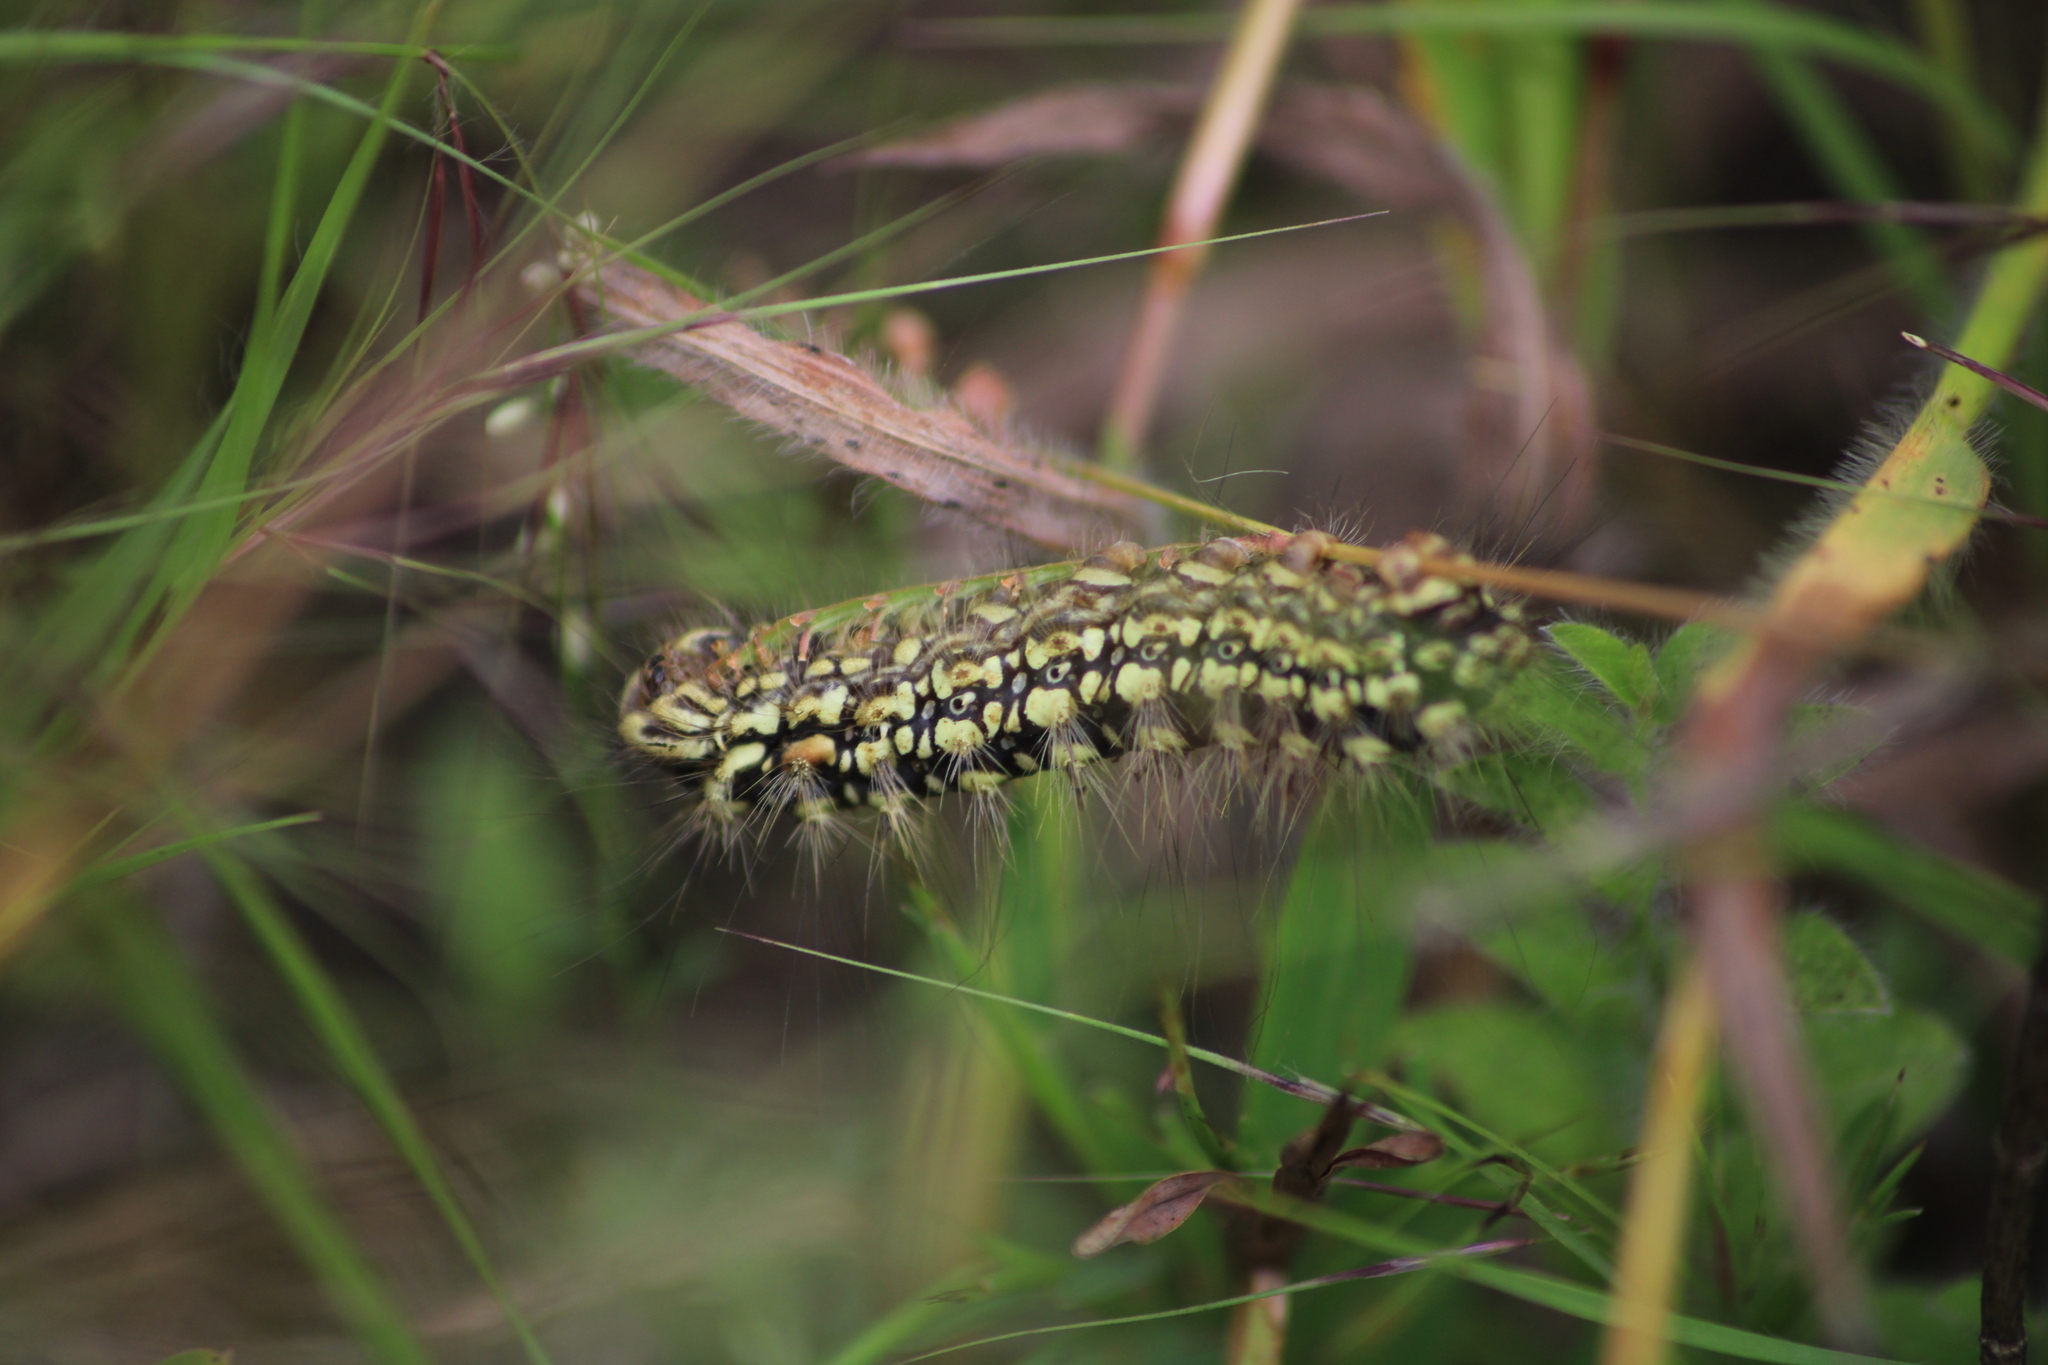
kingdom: Animalia
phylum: Arthropoda
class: Insecta
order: Lepidoptera
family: Megalopygidae
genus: Norape
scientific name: Norape sorpresa
